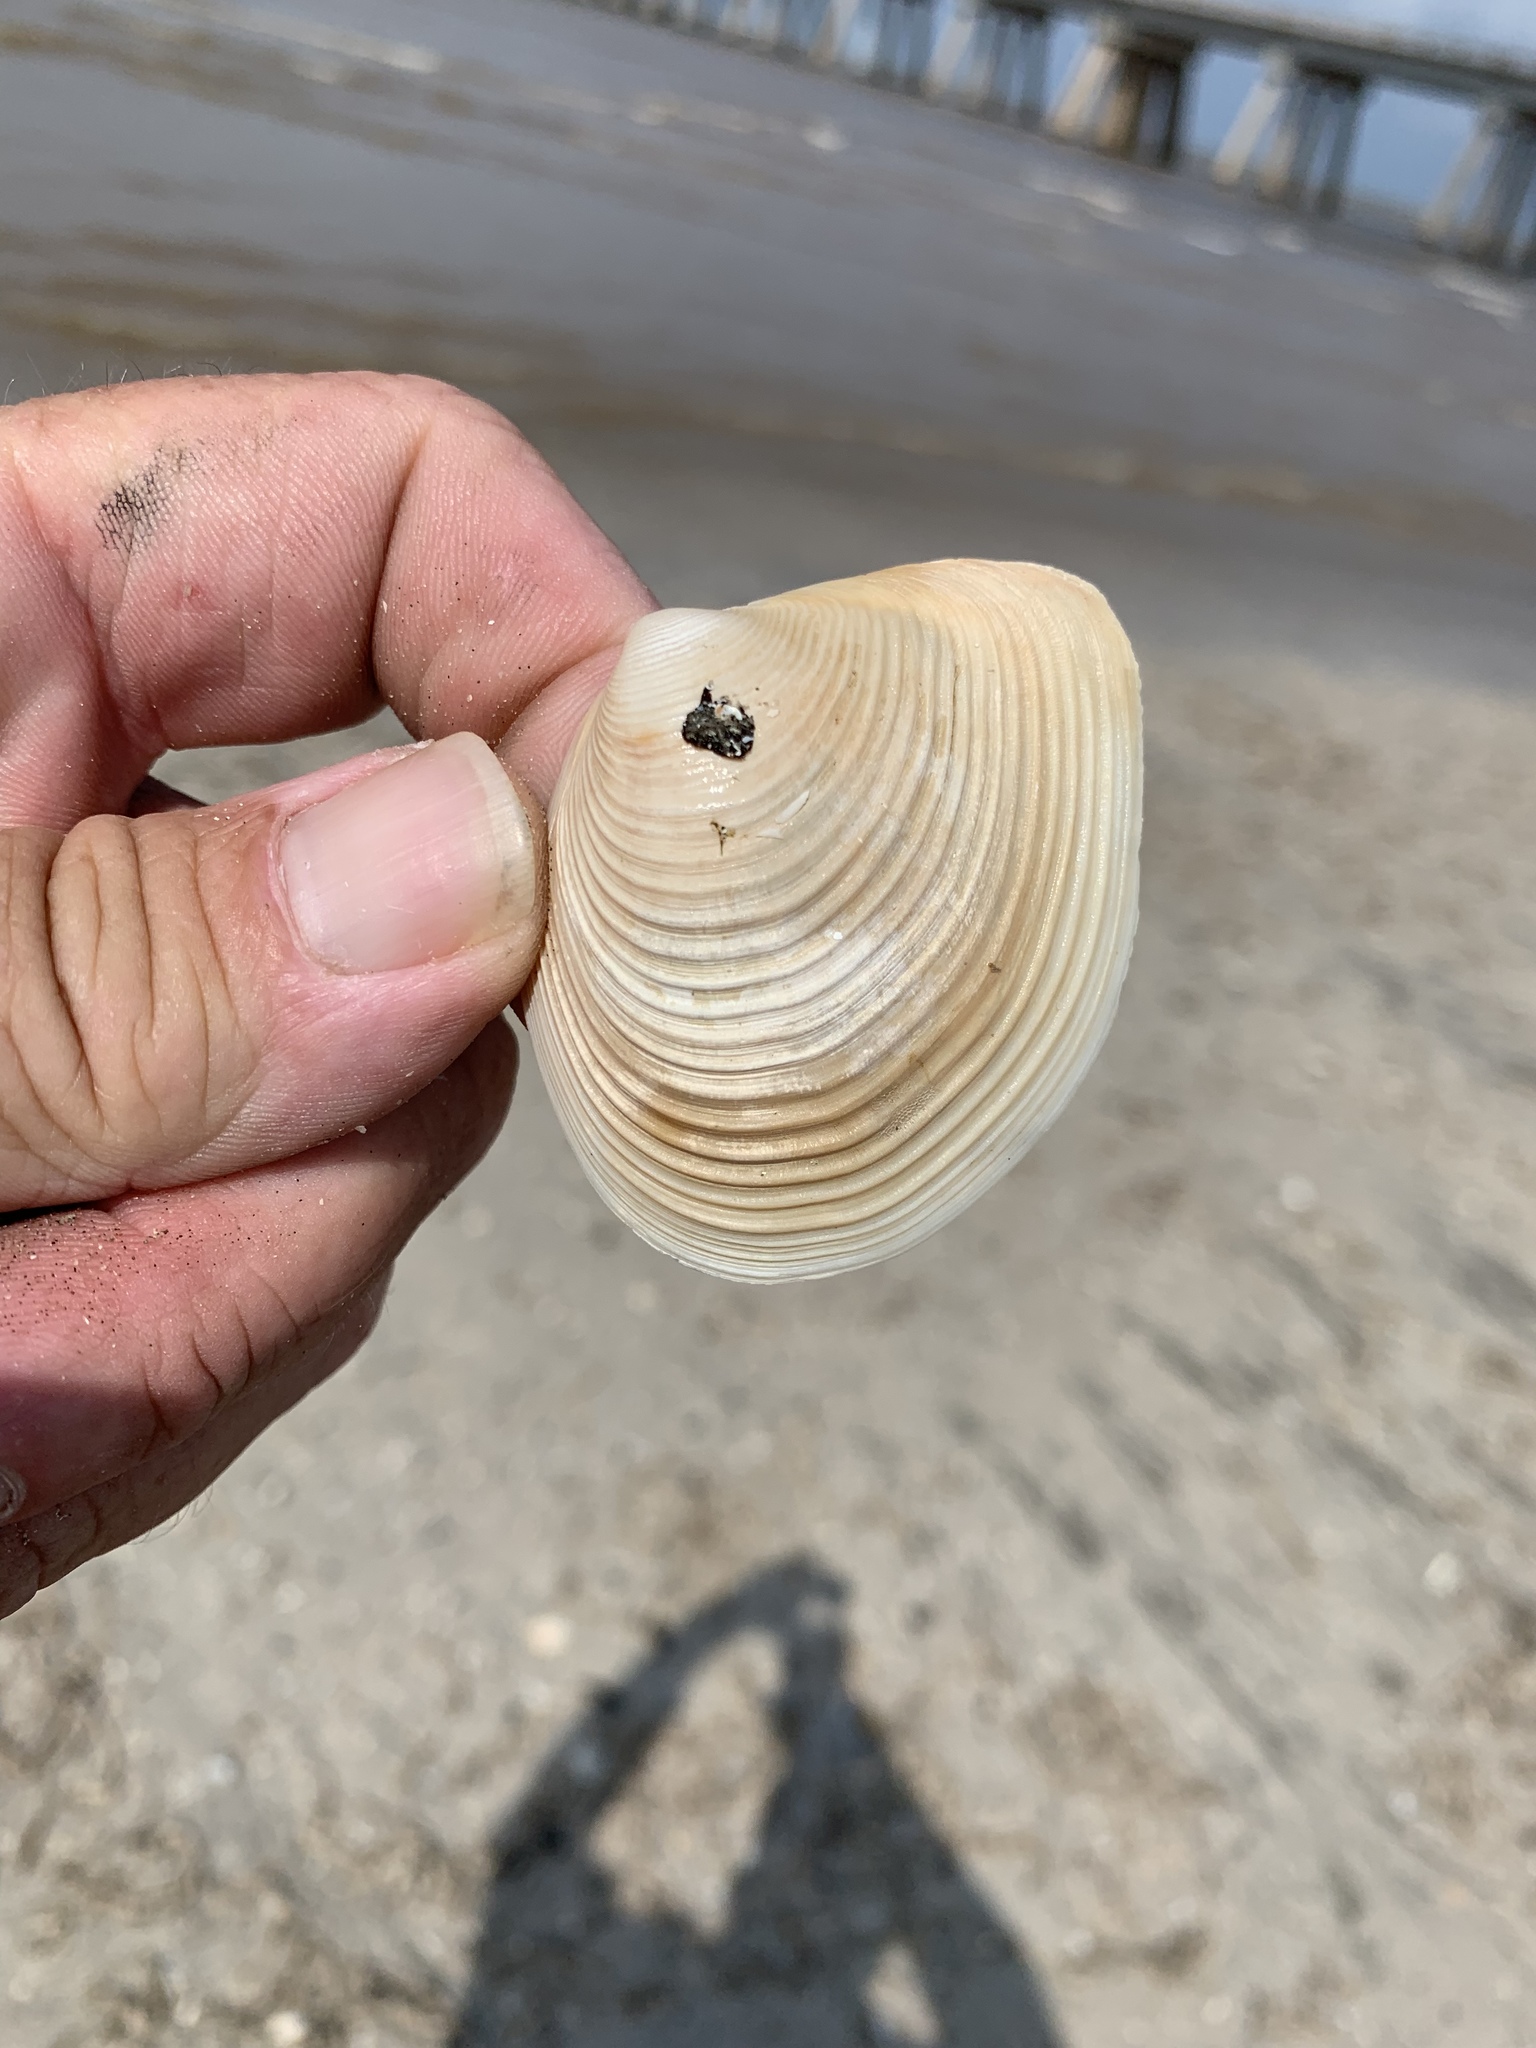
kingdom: Animalia
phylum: Mollusca
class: Bivalvia
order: Venerida
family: Anatinellidae
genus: Raeta
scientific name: Raeta plicatella
